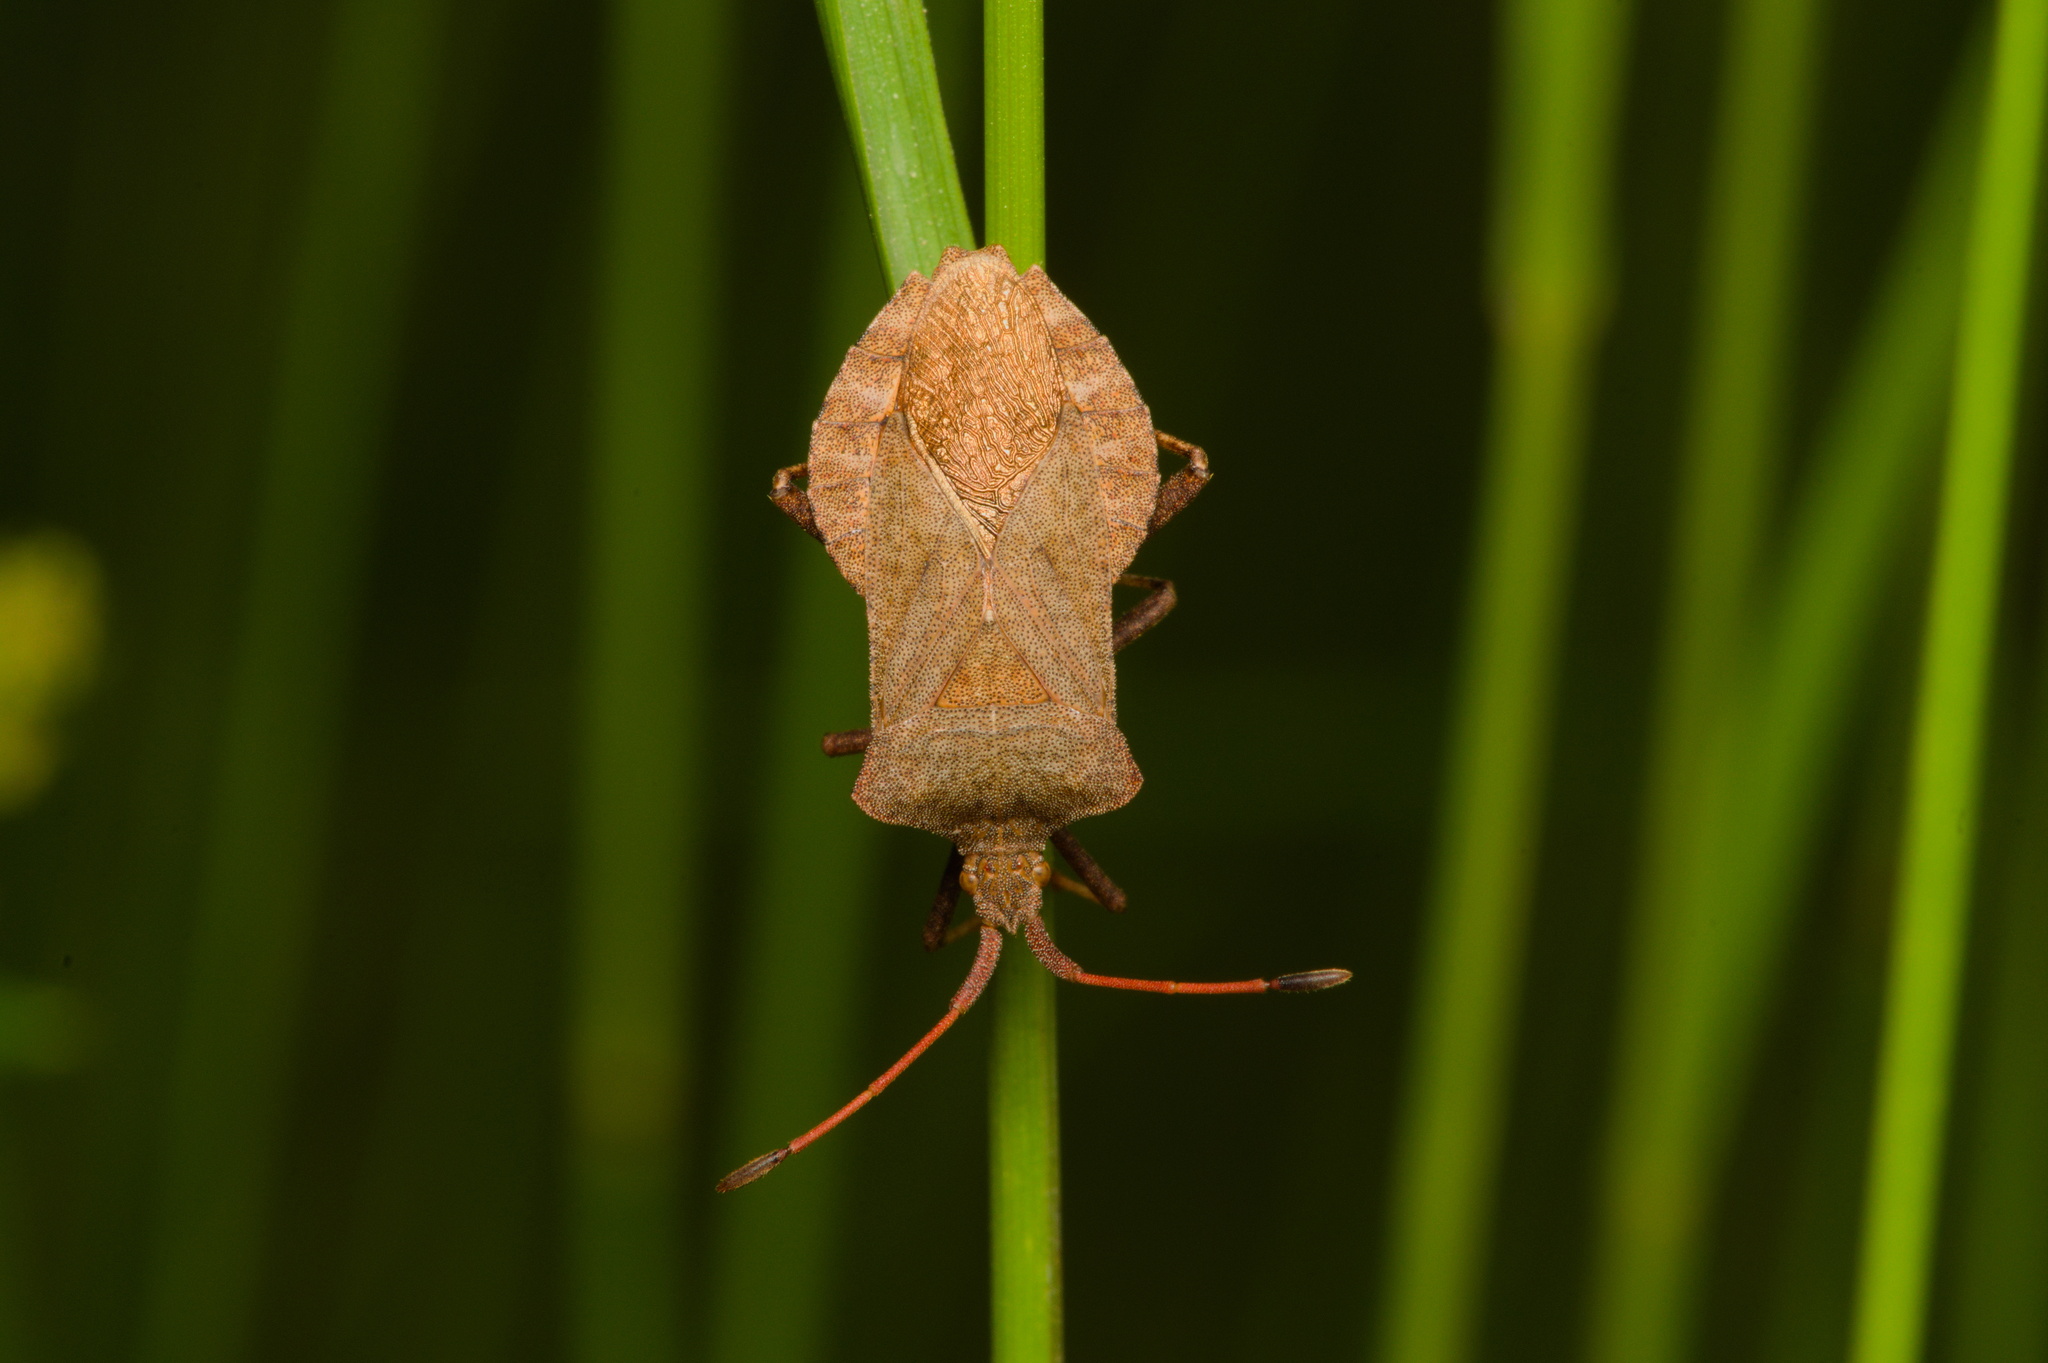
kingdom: Animalia
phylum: Arthropoda
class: Insecta
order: Hemiptera
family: Coreidae
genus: Coreus
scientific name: Coreus marginatus
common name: Dock bug
